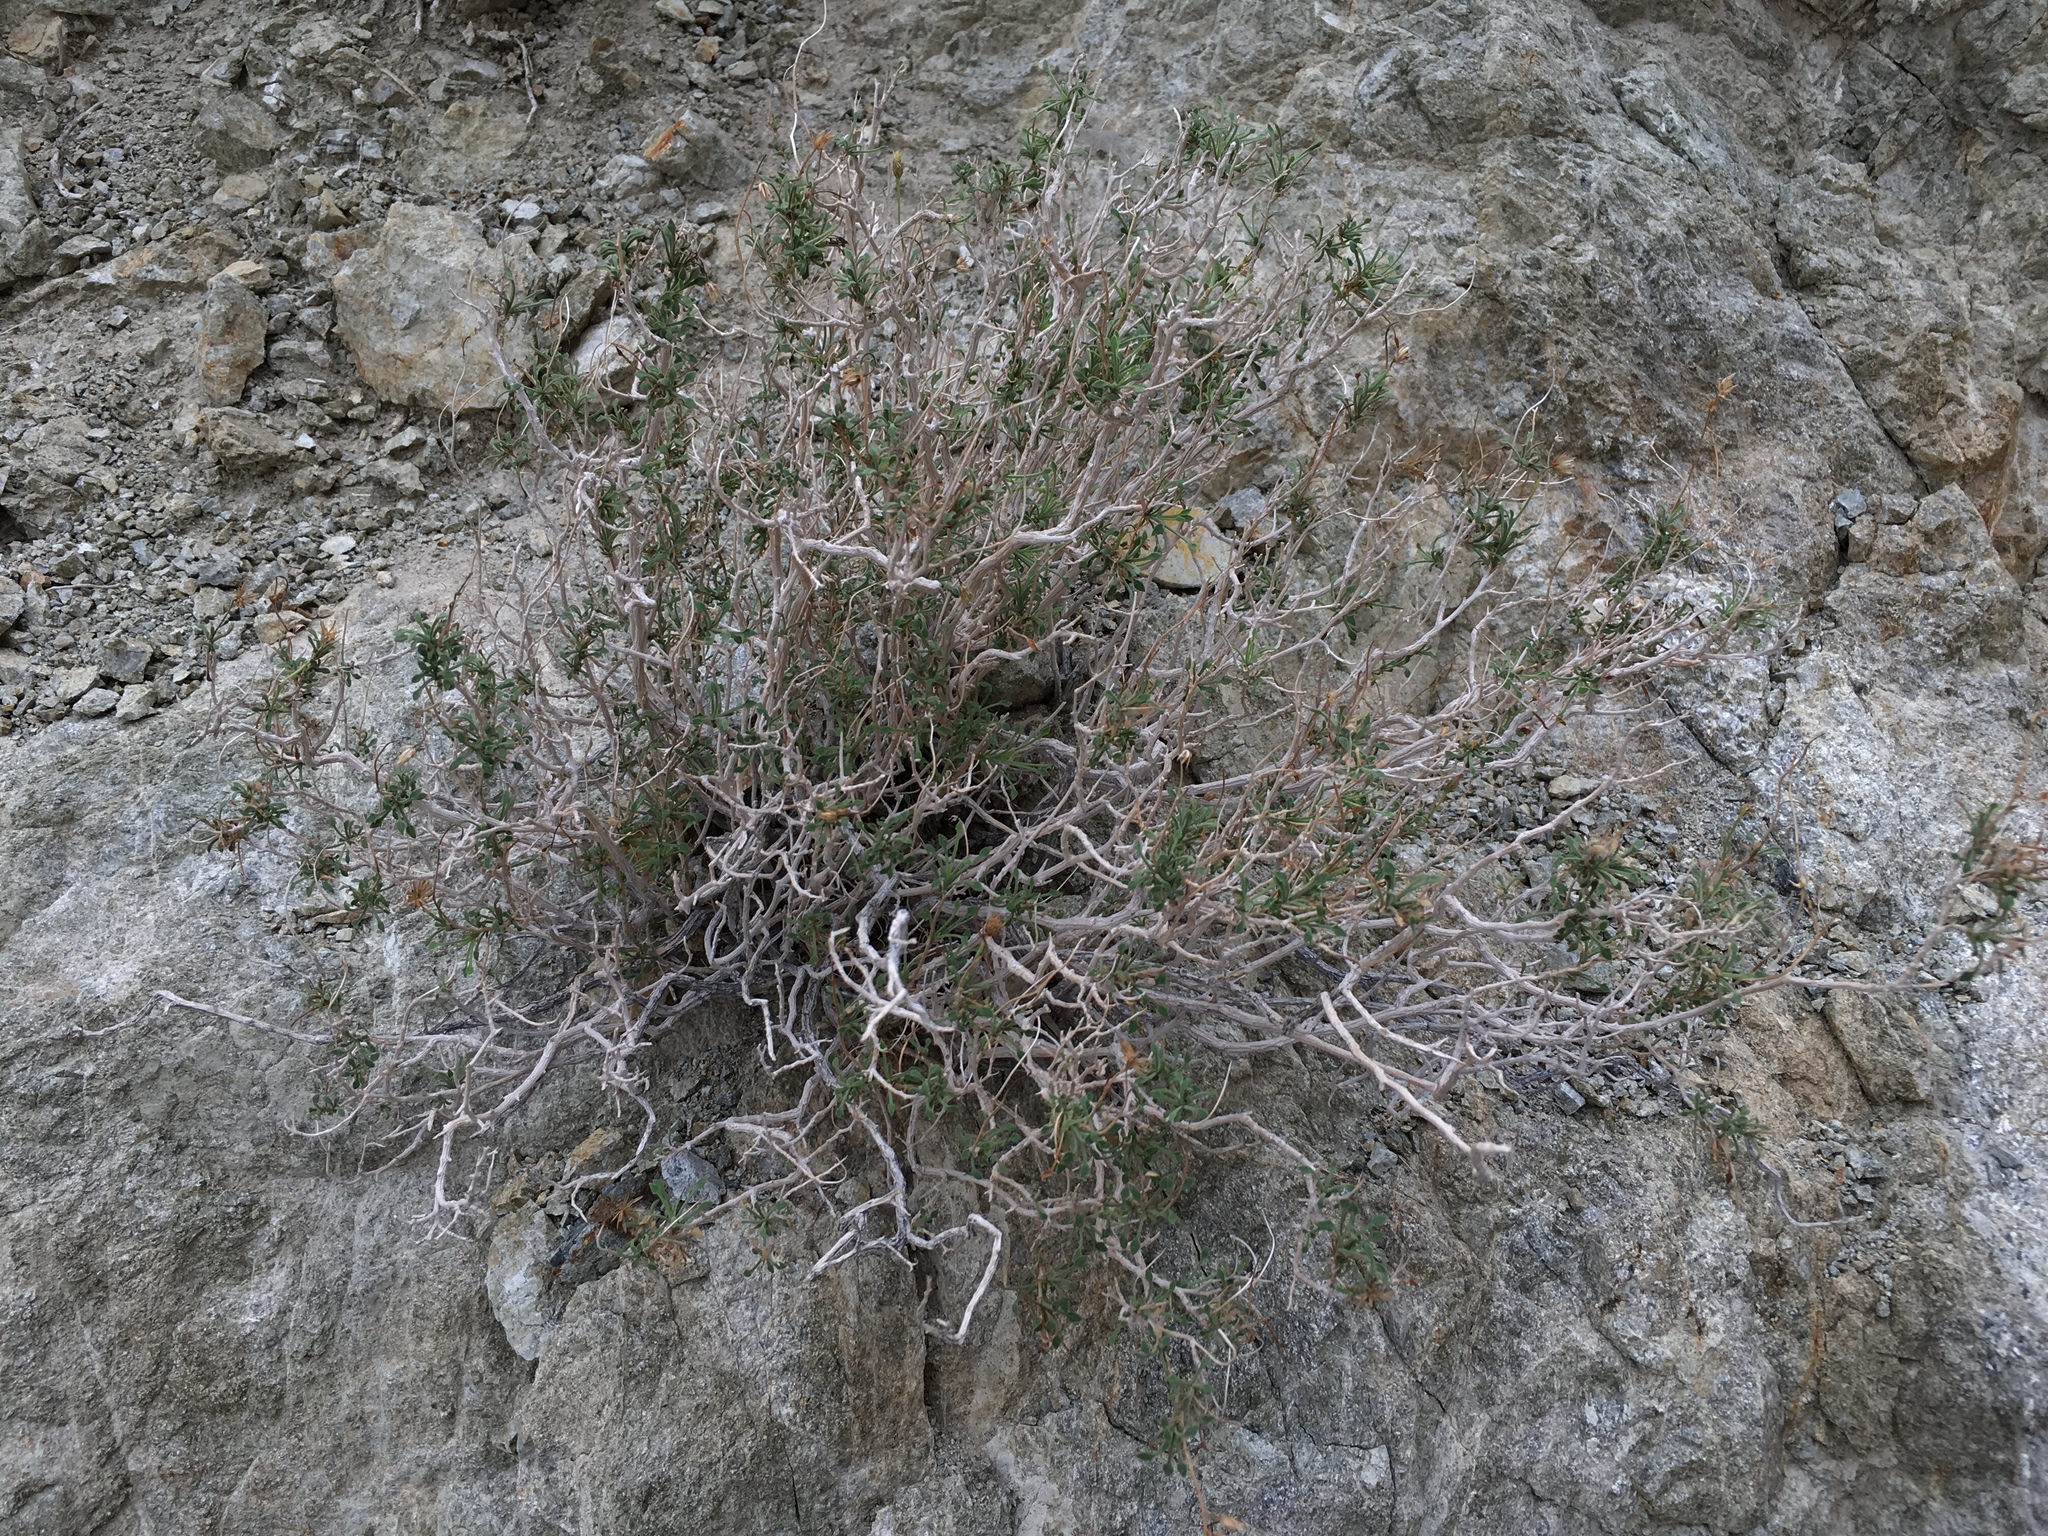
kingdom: Plantae
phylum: Tracheophyta
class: Magnoliopsida
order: Asterales
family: Asteraceae
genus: Pleurocoronis
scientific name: Pleurocoronis pluriseta
